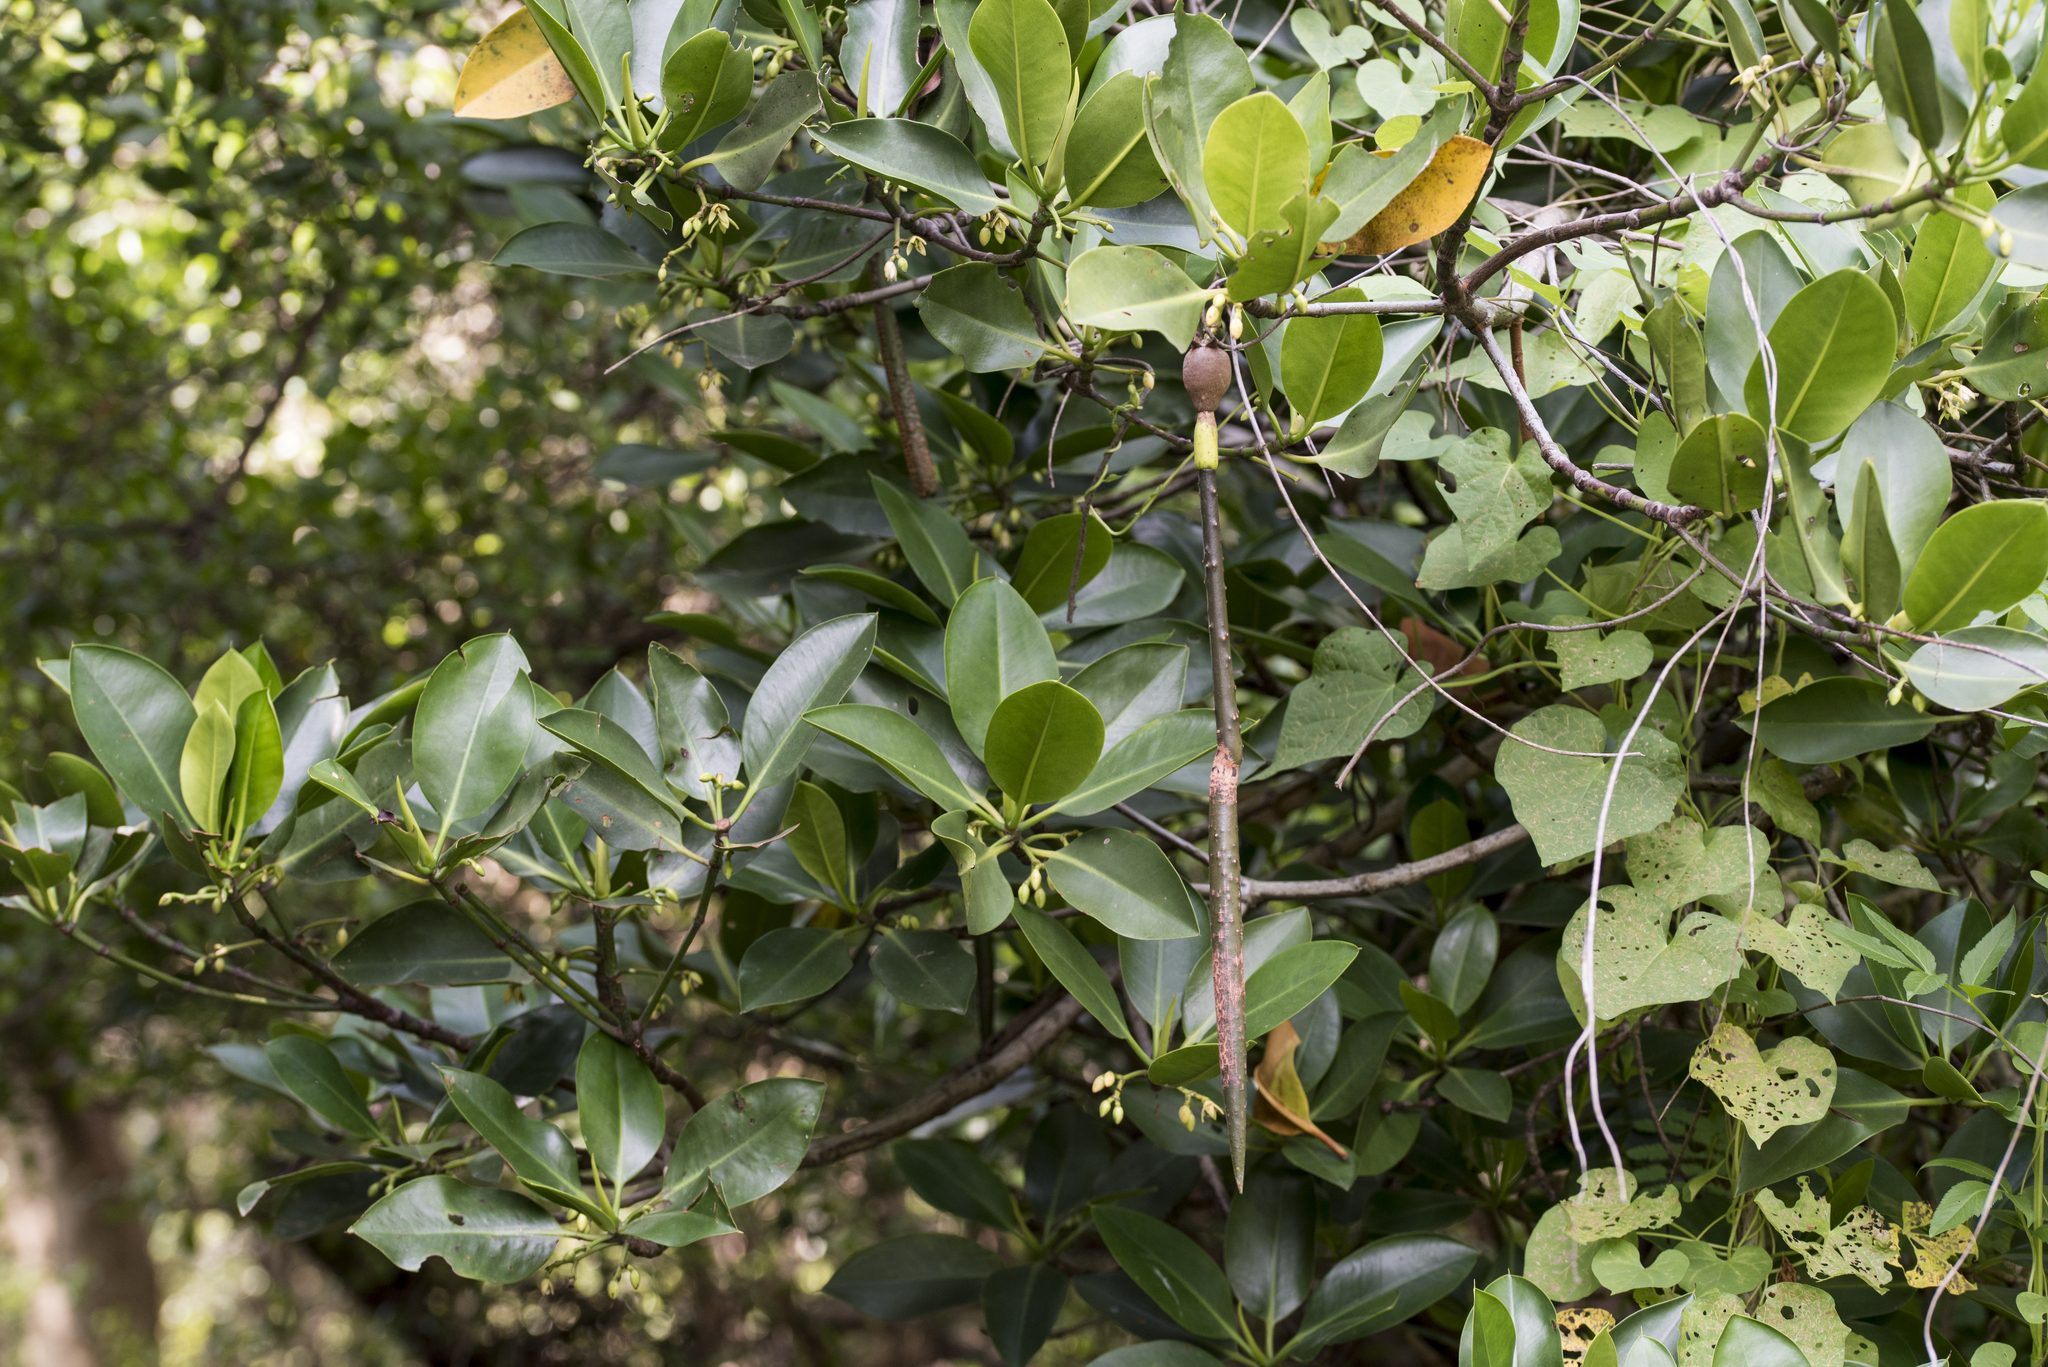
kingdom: Plantae
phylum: Tracheophyta
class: Magnoliopsida
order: Malpighiales
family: Rhizophoraceae
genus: Rhizophora
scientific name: Rhizophora stylosa
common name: Red mangrove
